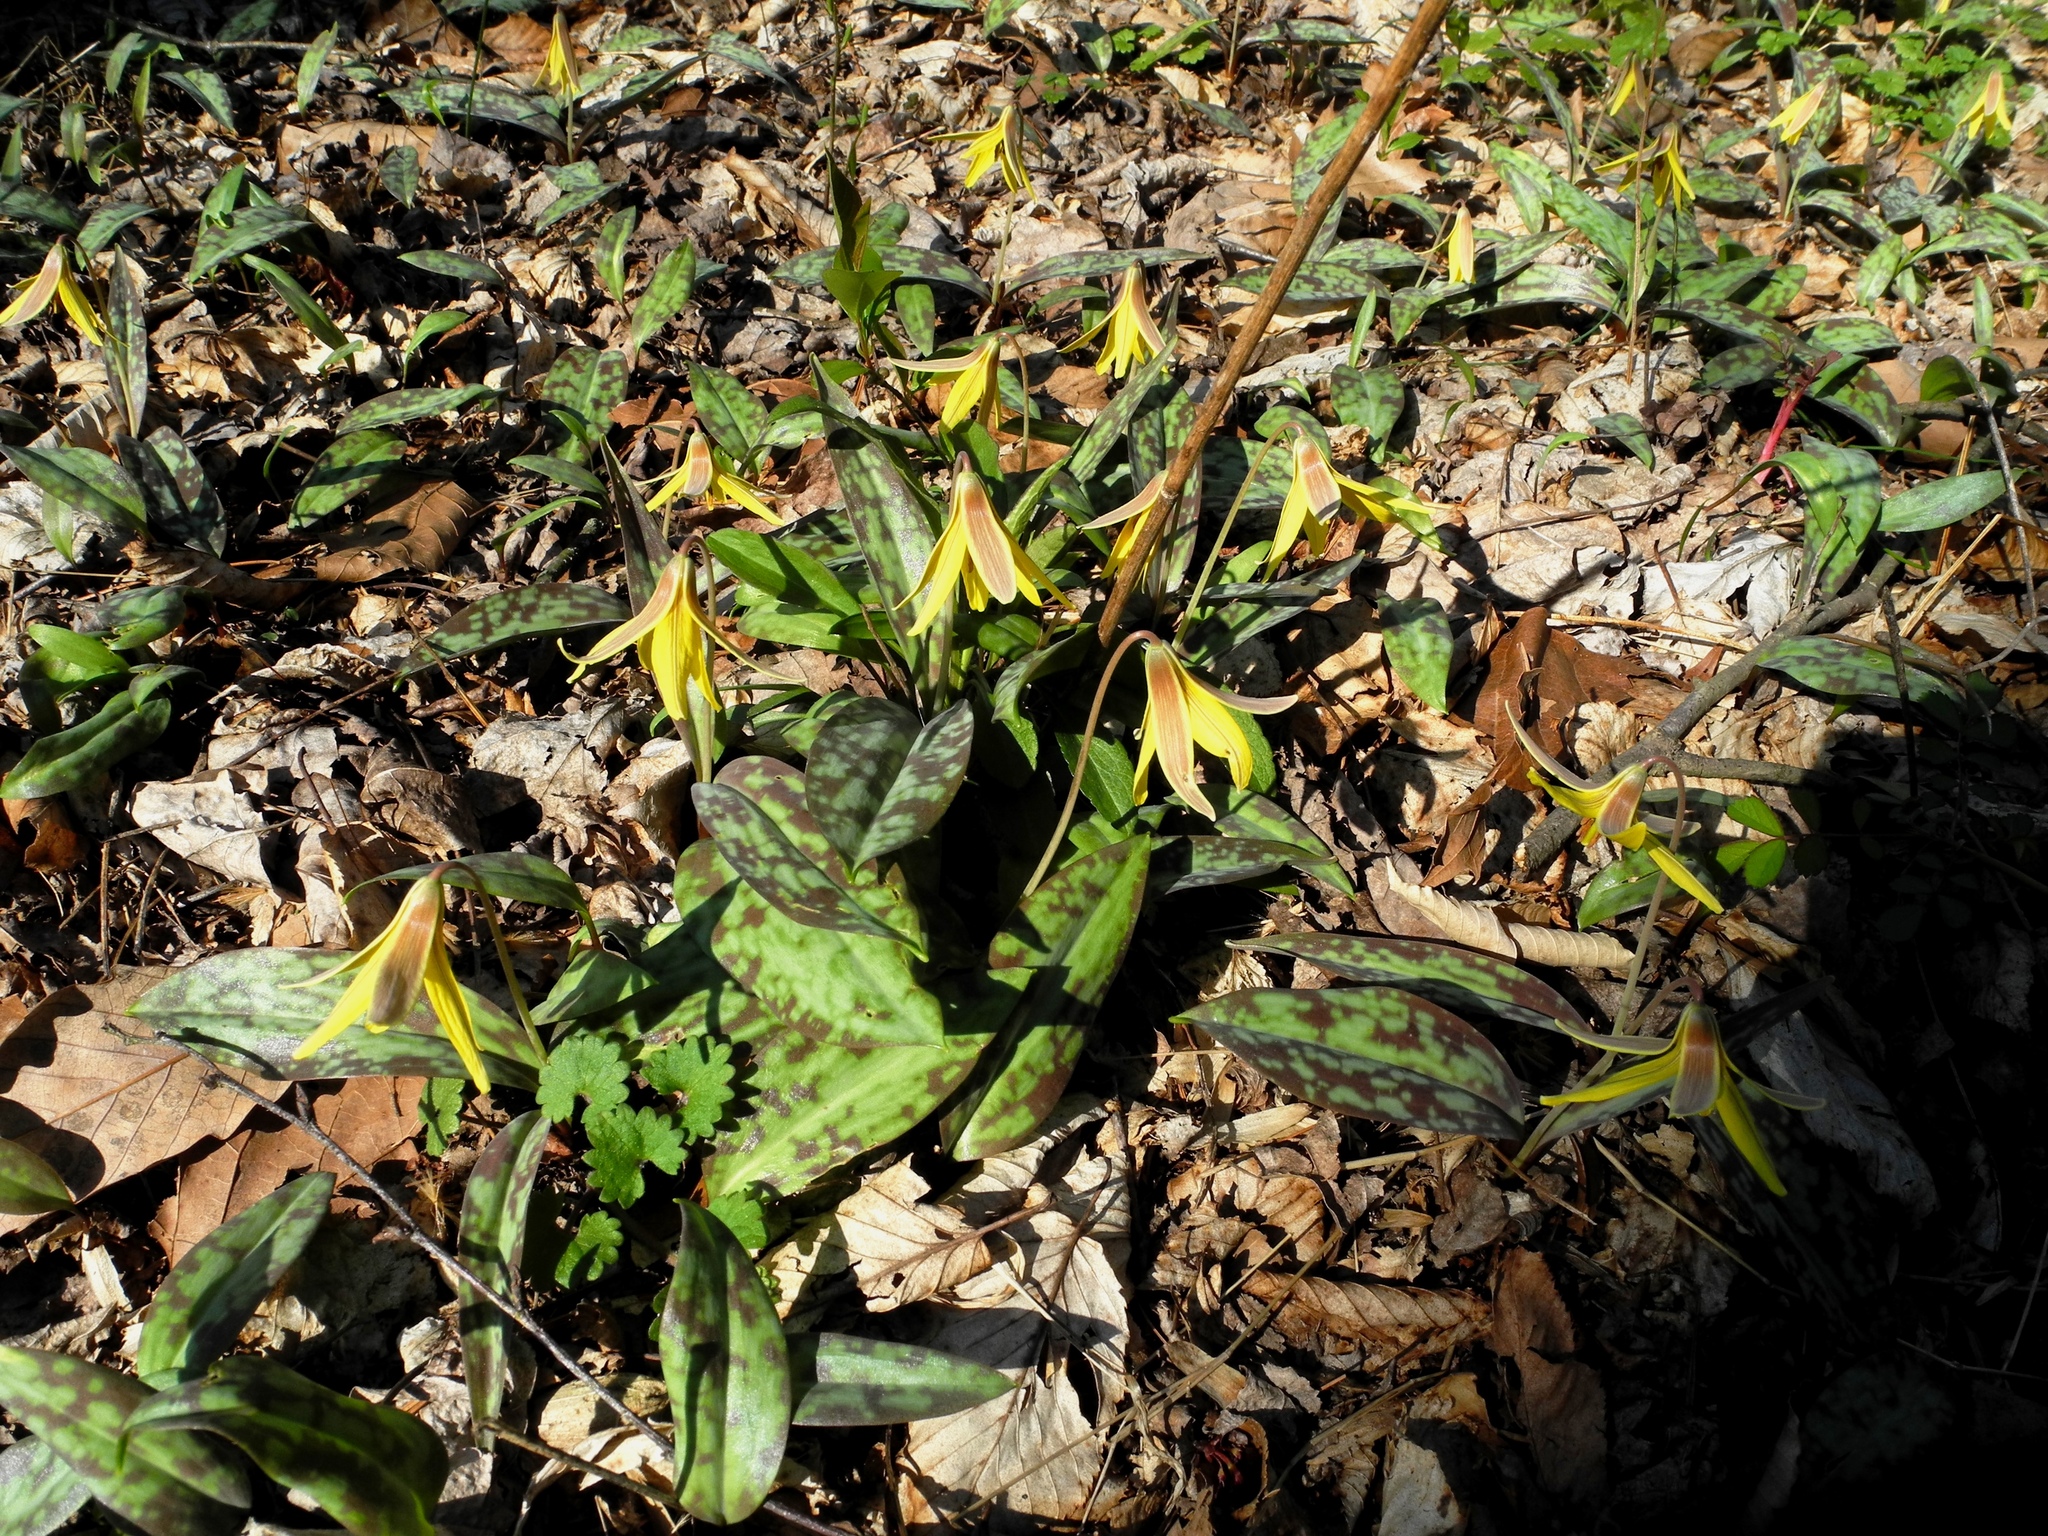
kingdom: Plantae
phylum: Tracheophyta
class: Liliopsida
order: Liliales
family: Liliaceae
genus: Erythronium
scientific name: Erythronium americanum
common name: Yellow adder's-tongue
